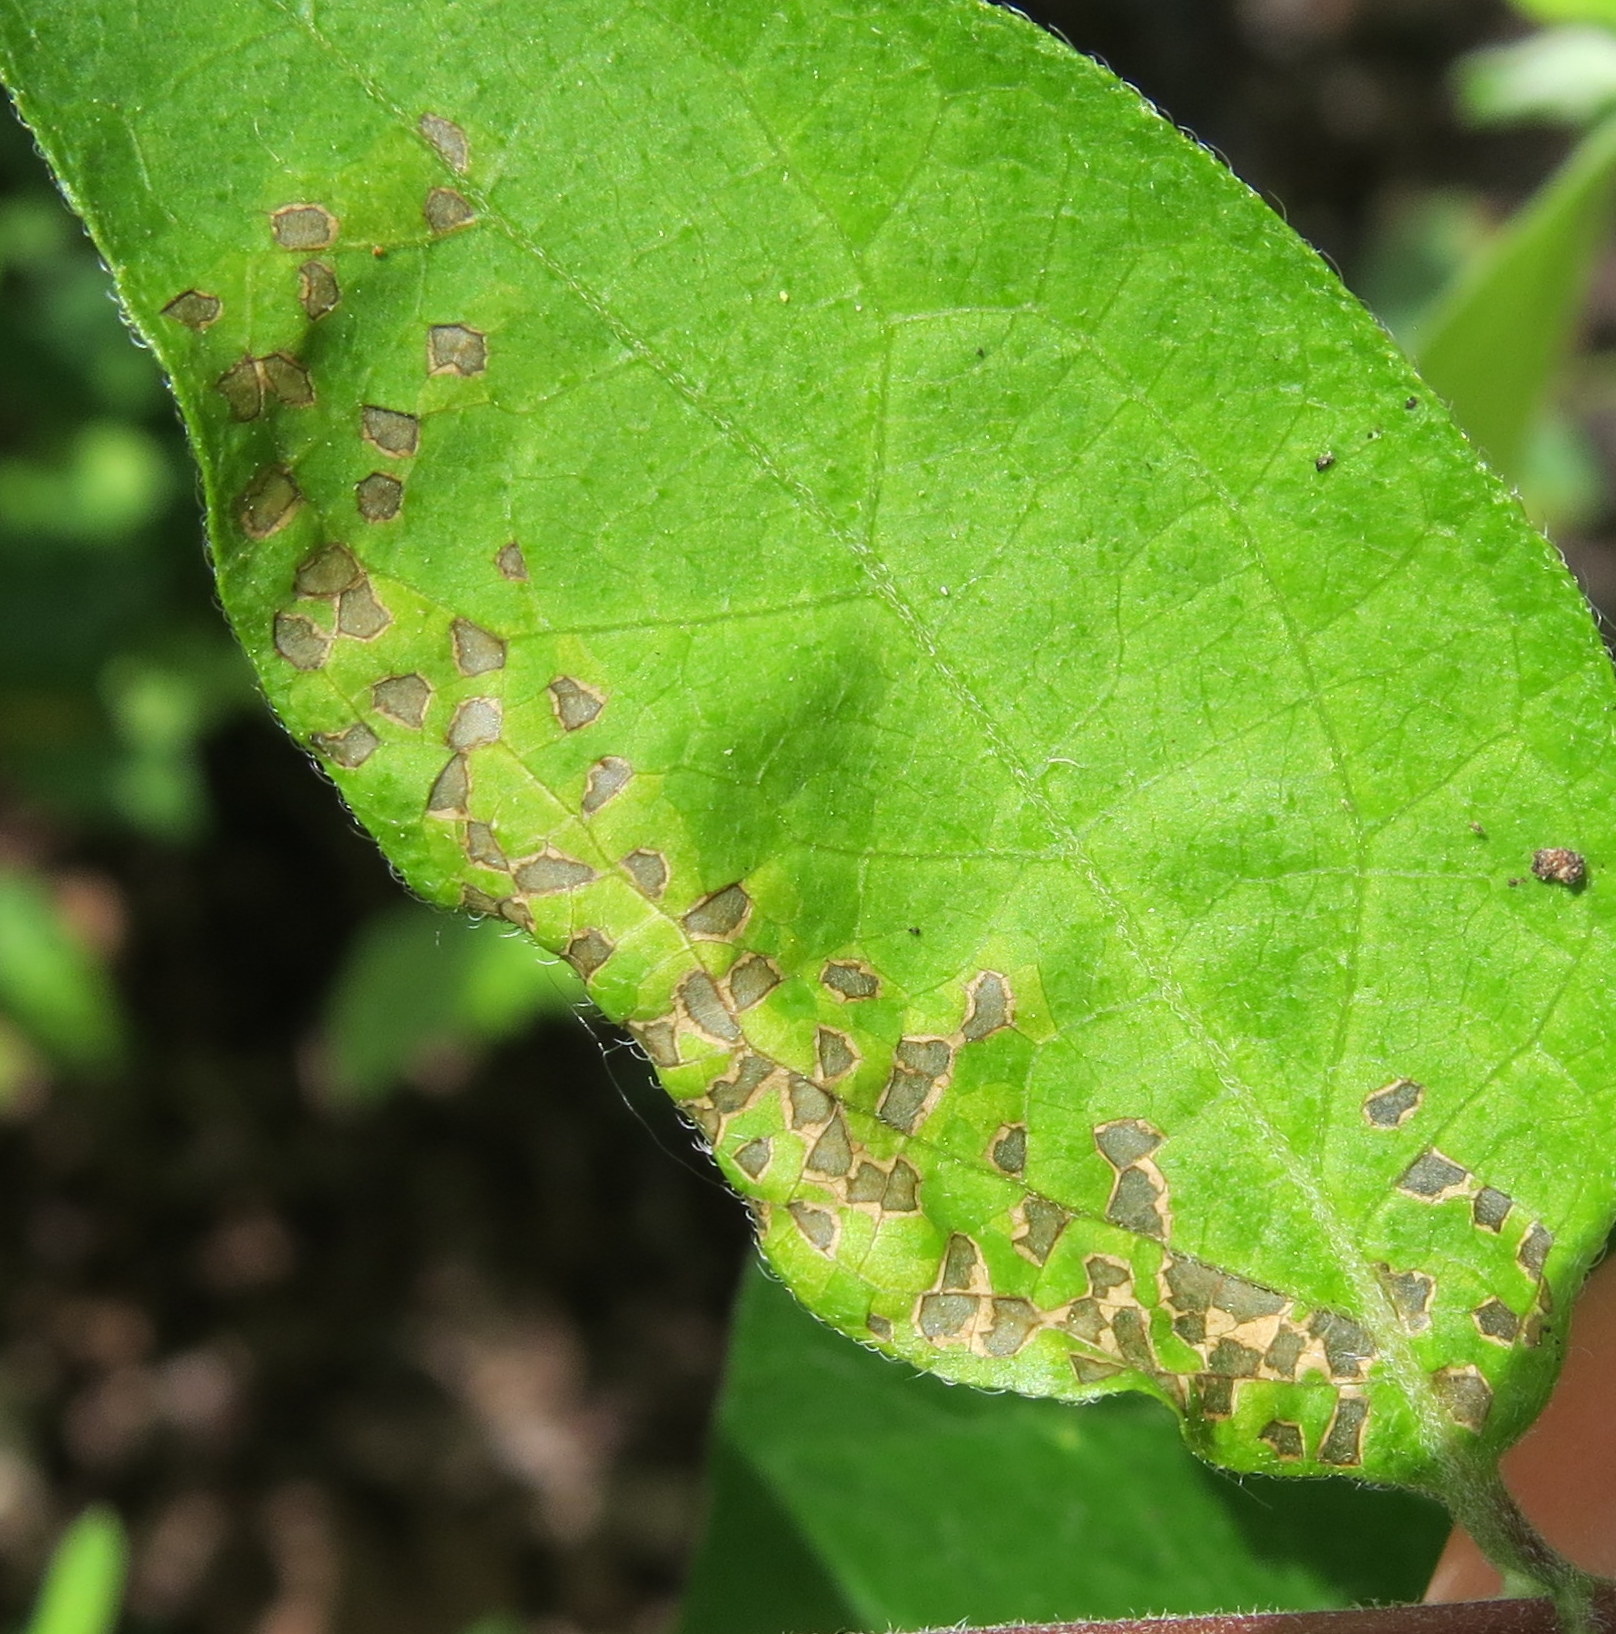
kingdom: Animalia
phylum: Arthropoda
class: Insecta
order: Hemiptera
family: Miridae
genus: Poecilocapsus
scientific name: Poecilocapsus lineatus
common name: Four-lined plant bug
